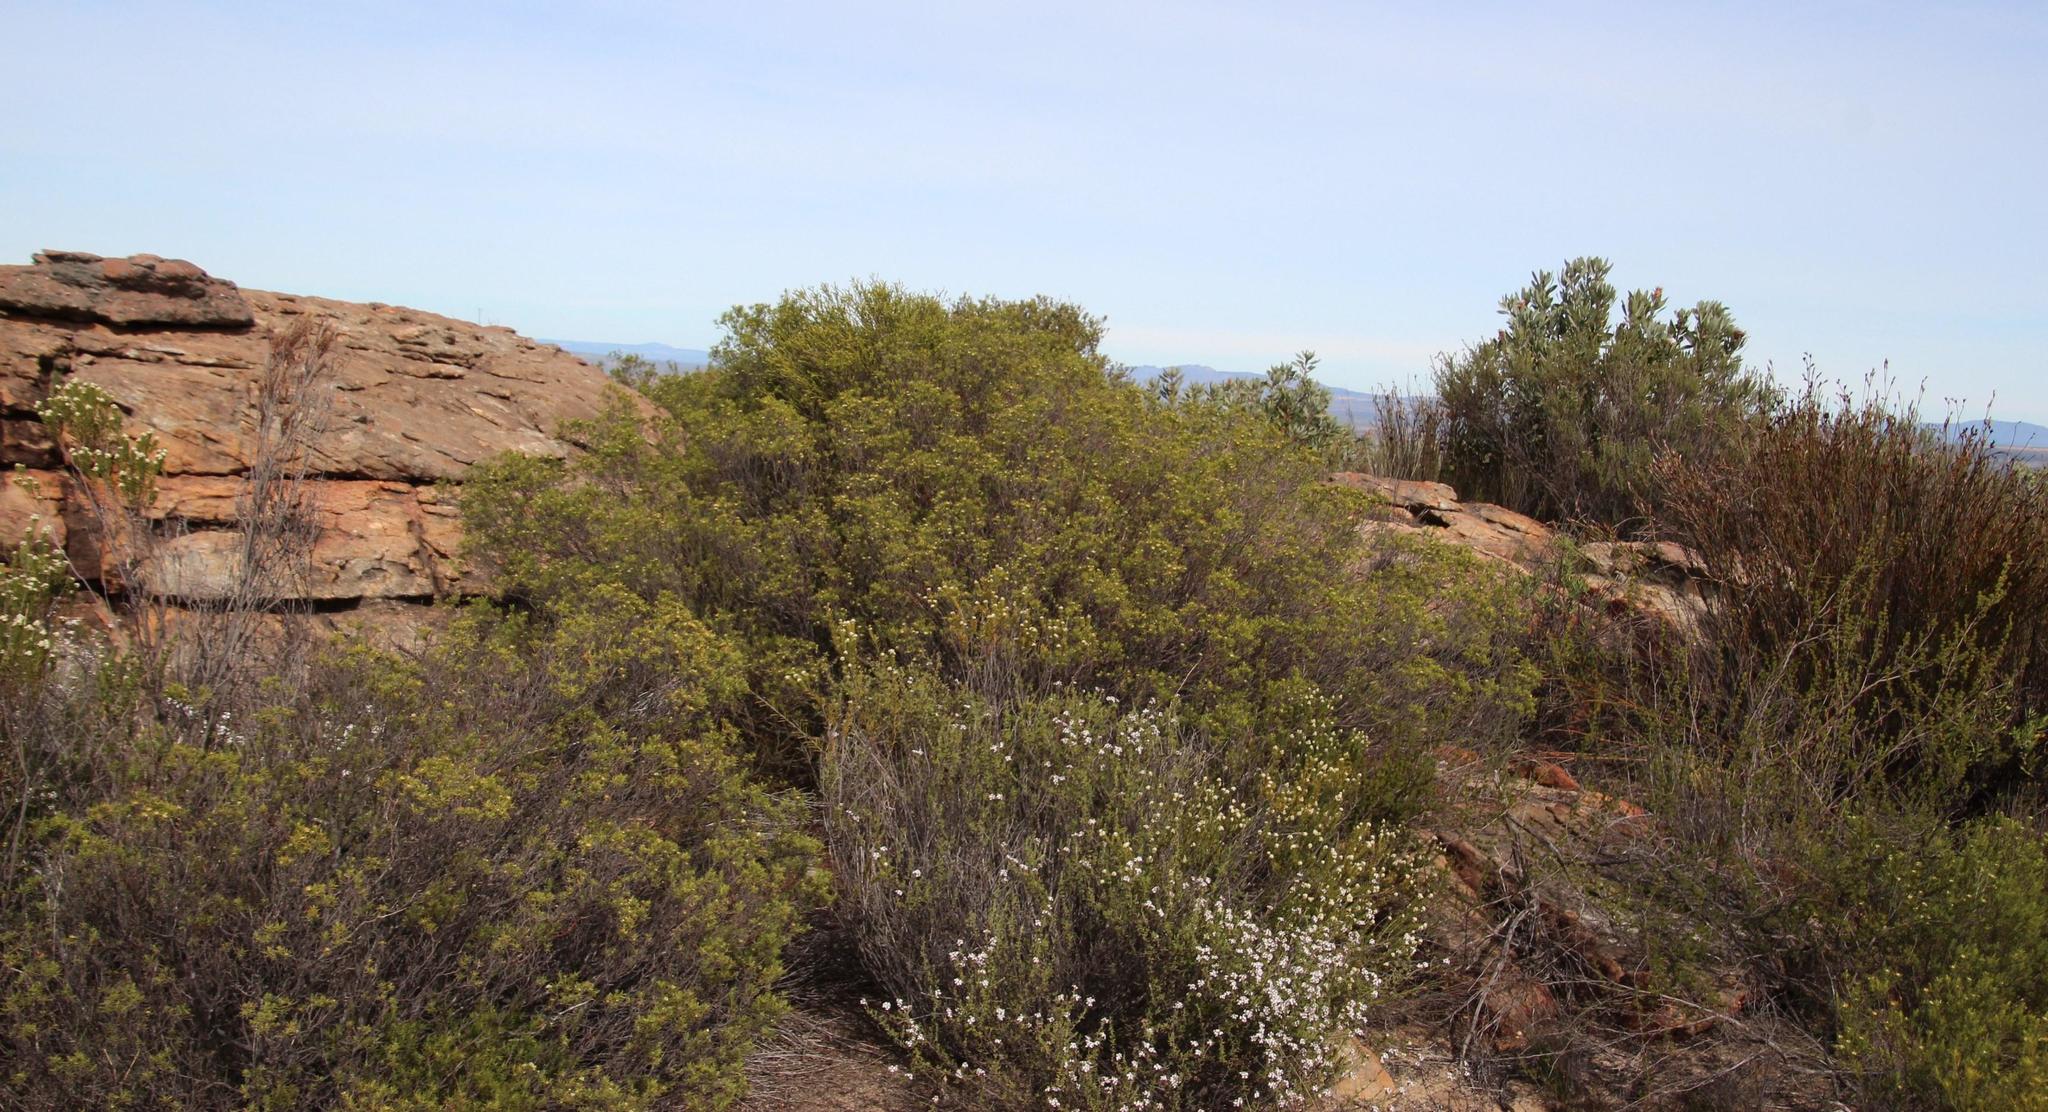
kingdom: Plantae
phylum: Tracheophyta
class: Magnoliopsida
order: Sapindales
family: Rutaceae
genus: Diosma
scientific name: Diosma acmaeophylla
